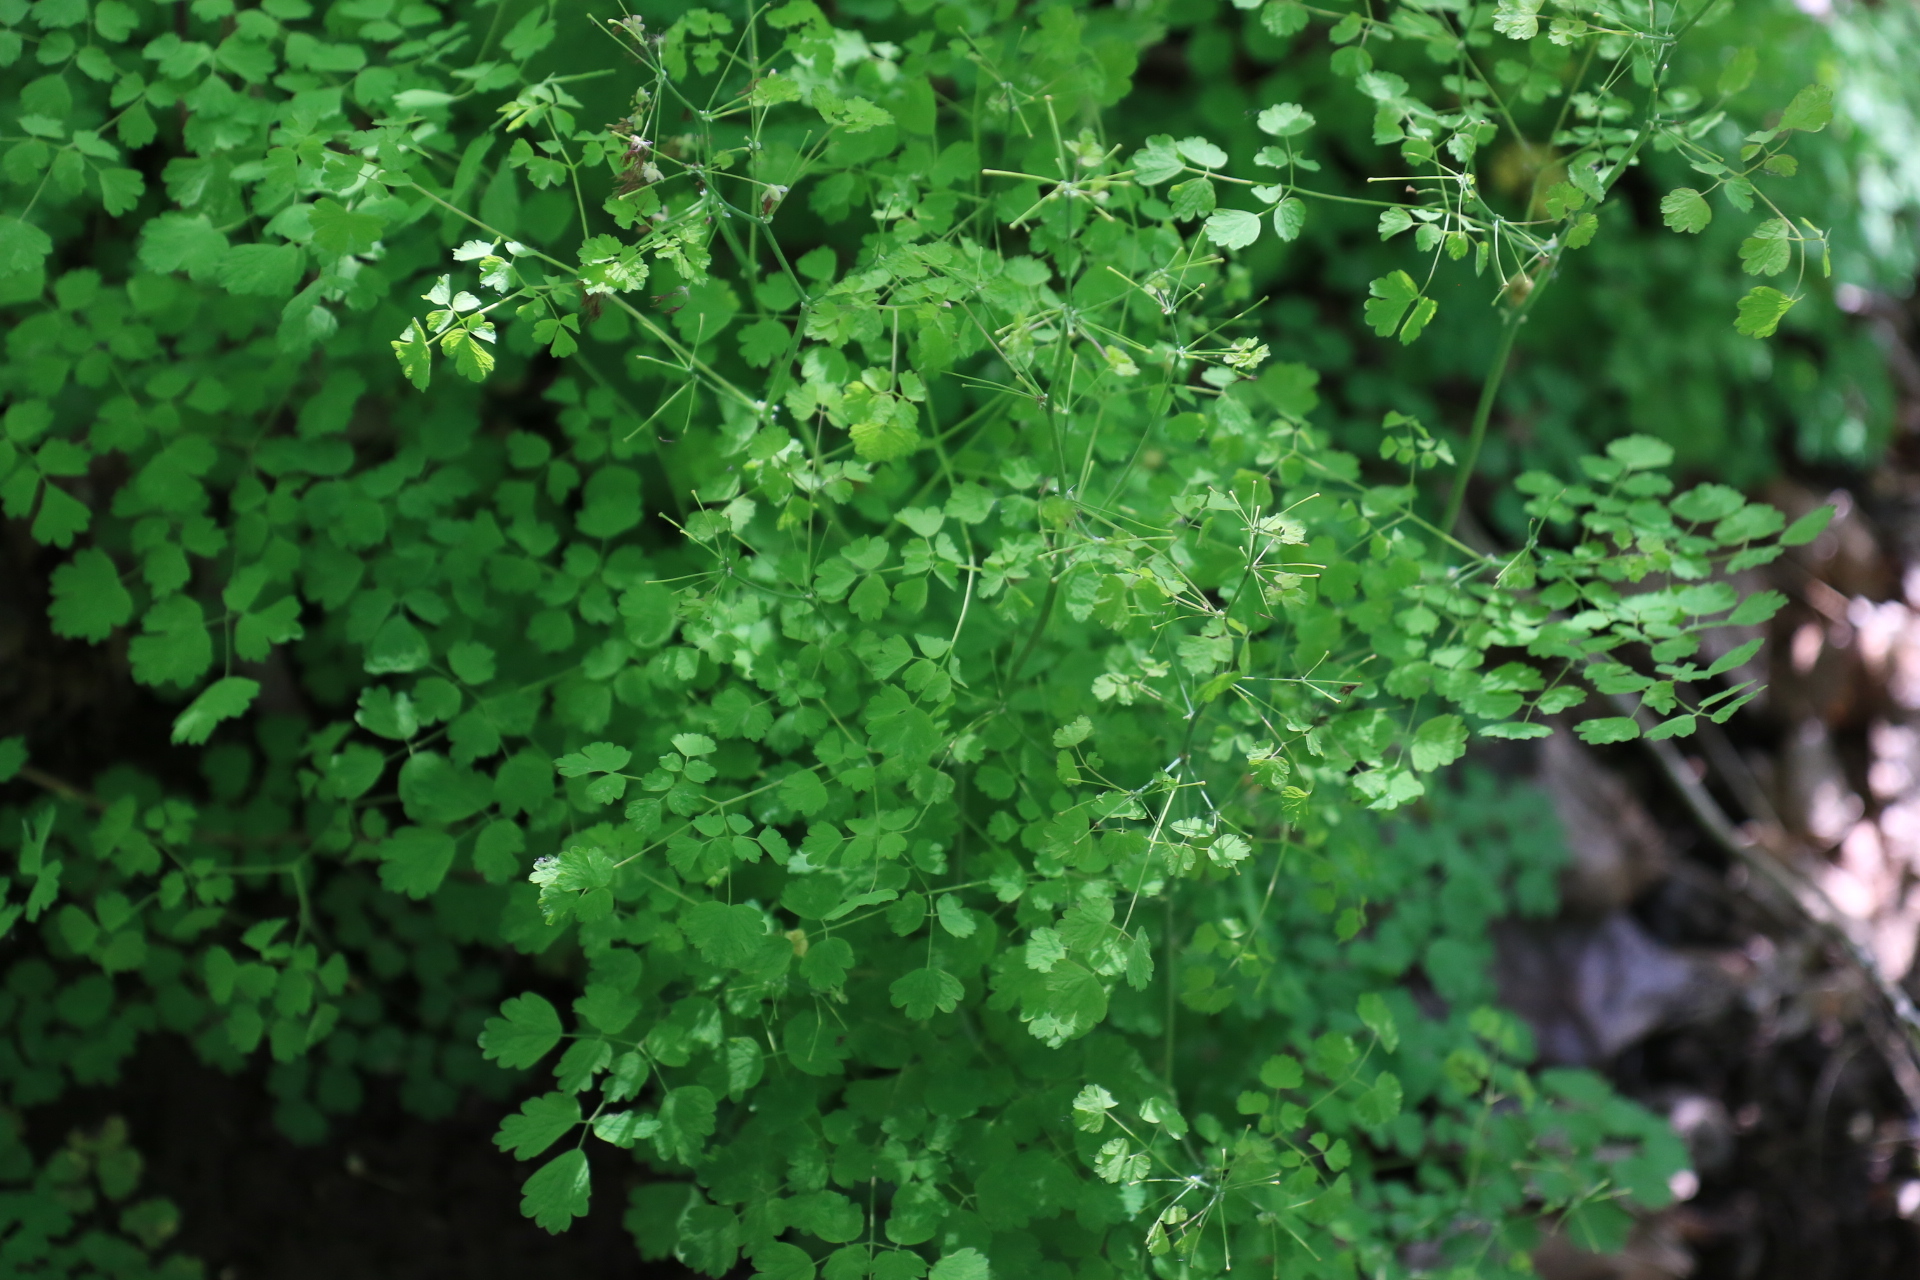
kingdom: Plantae
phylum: Tracheophyta
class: Magnoliopsida
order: Ranunculales
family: Ranunculaceae
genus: Thalictrum
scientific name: Thalictrum occidentale
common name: Western meadow-rue
